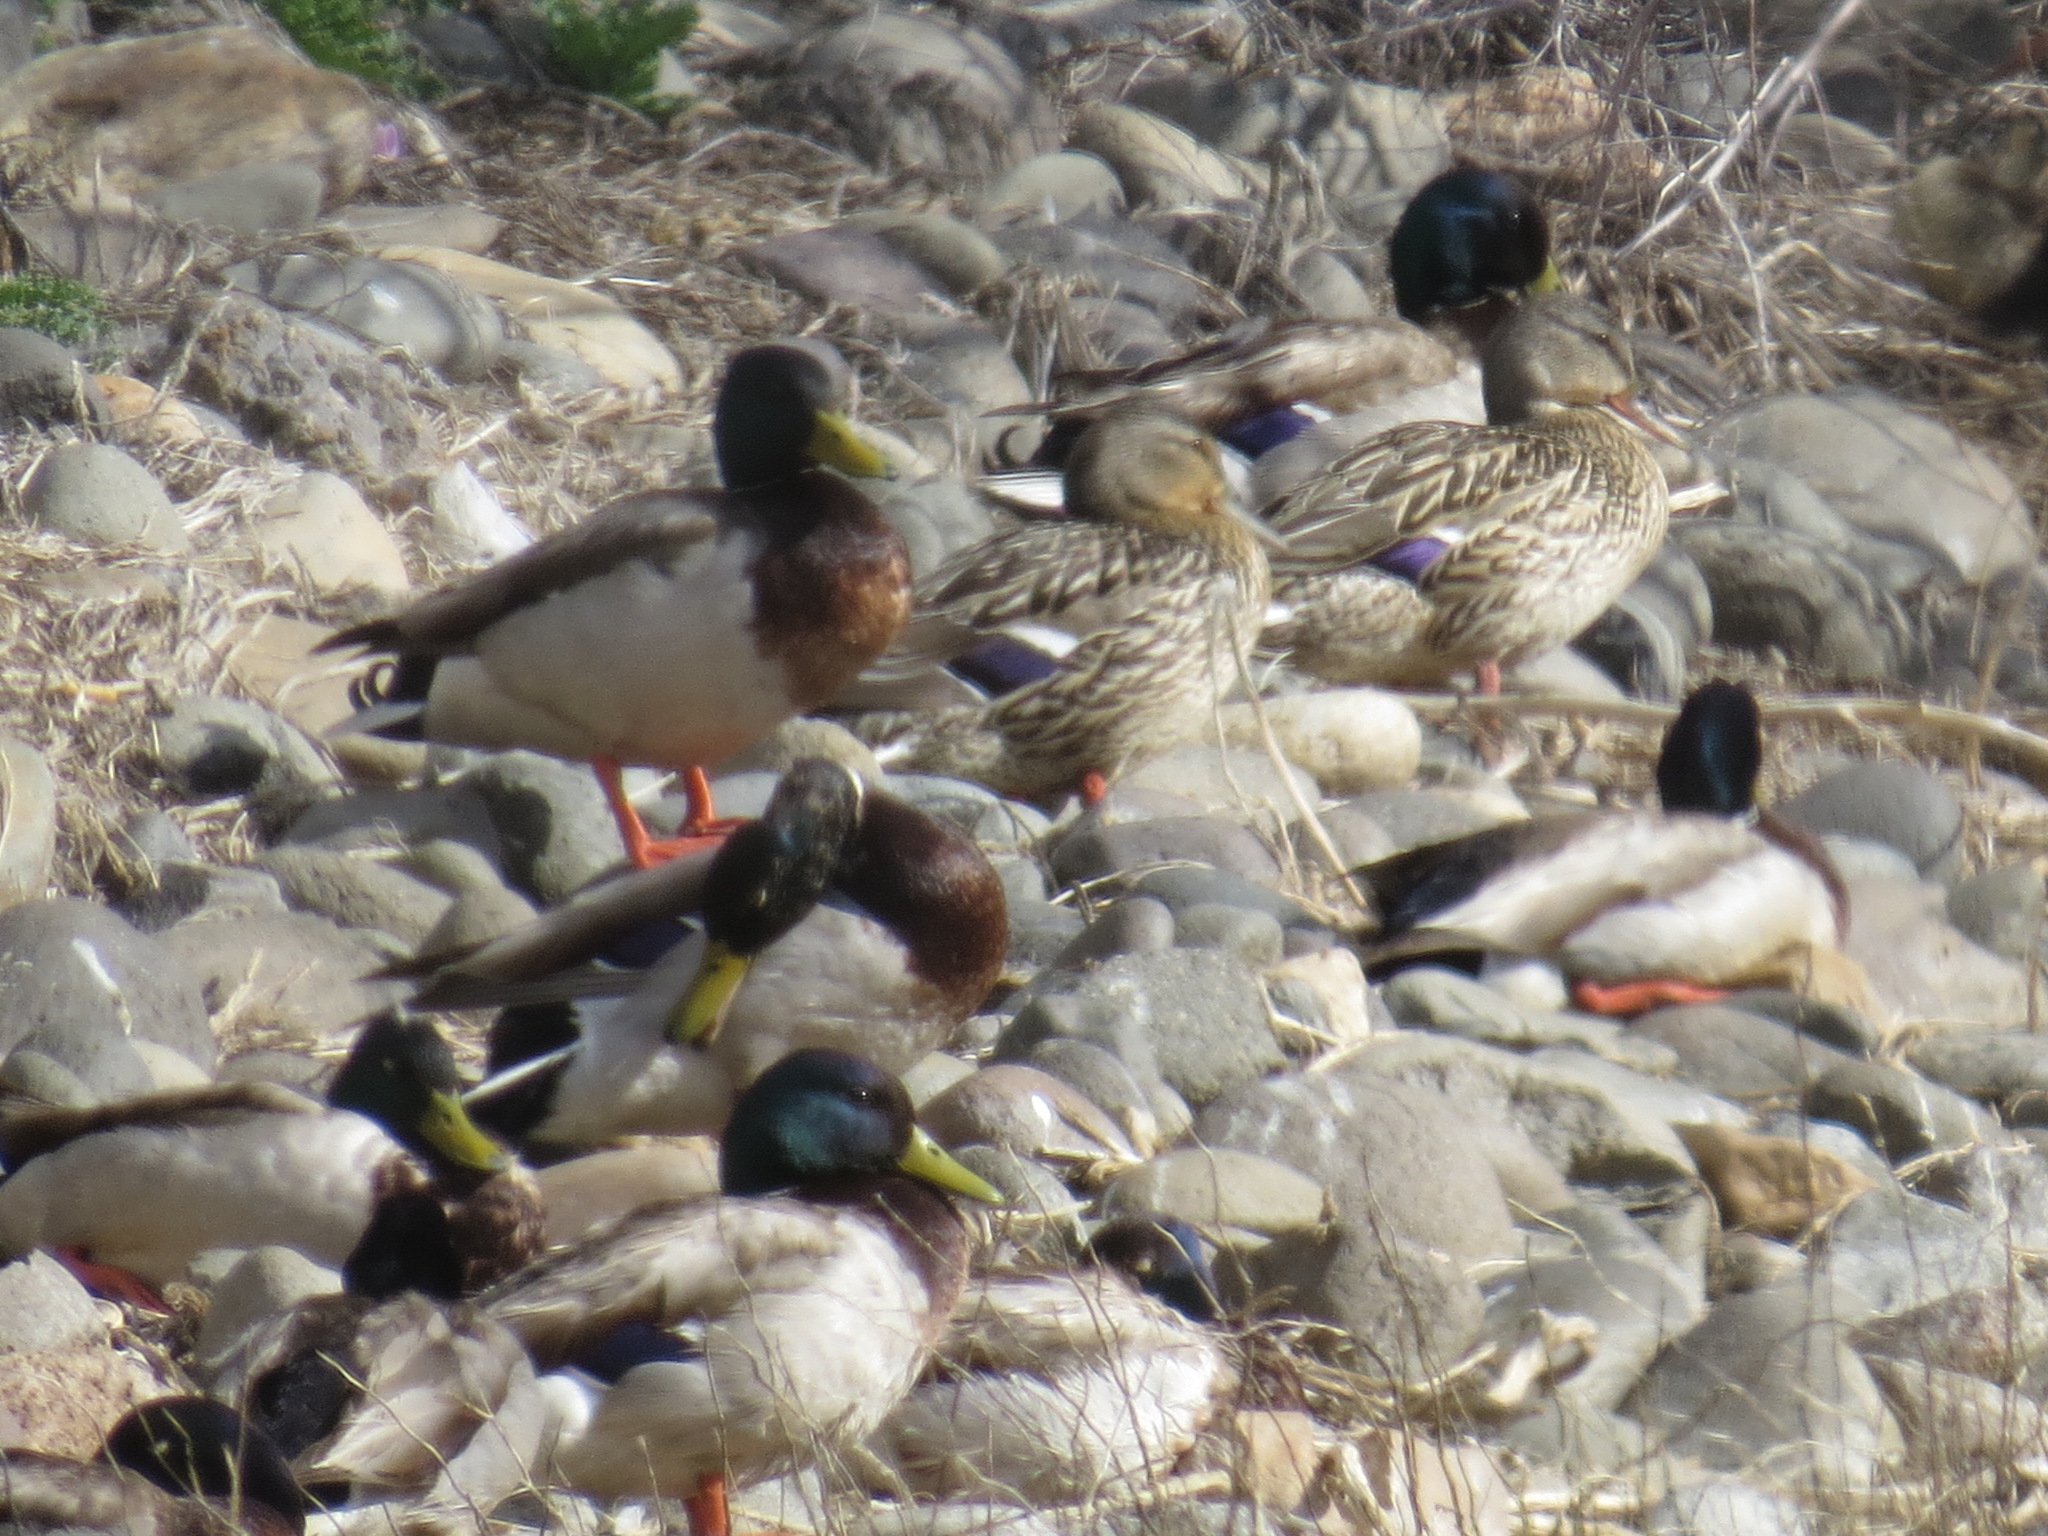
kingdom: Animalia
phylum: Chordata
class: Aves
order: Anseriformes
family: Anatidae
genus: Anas
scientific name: Anas platyrhynchos
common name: Mallard
